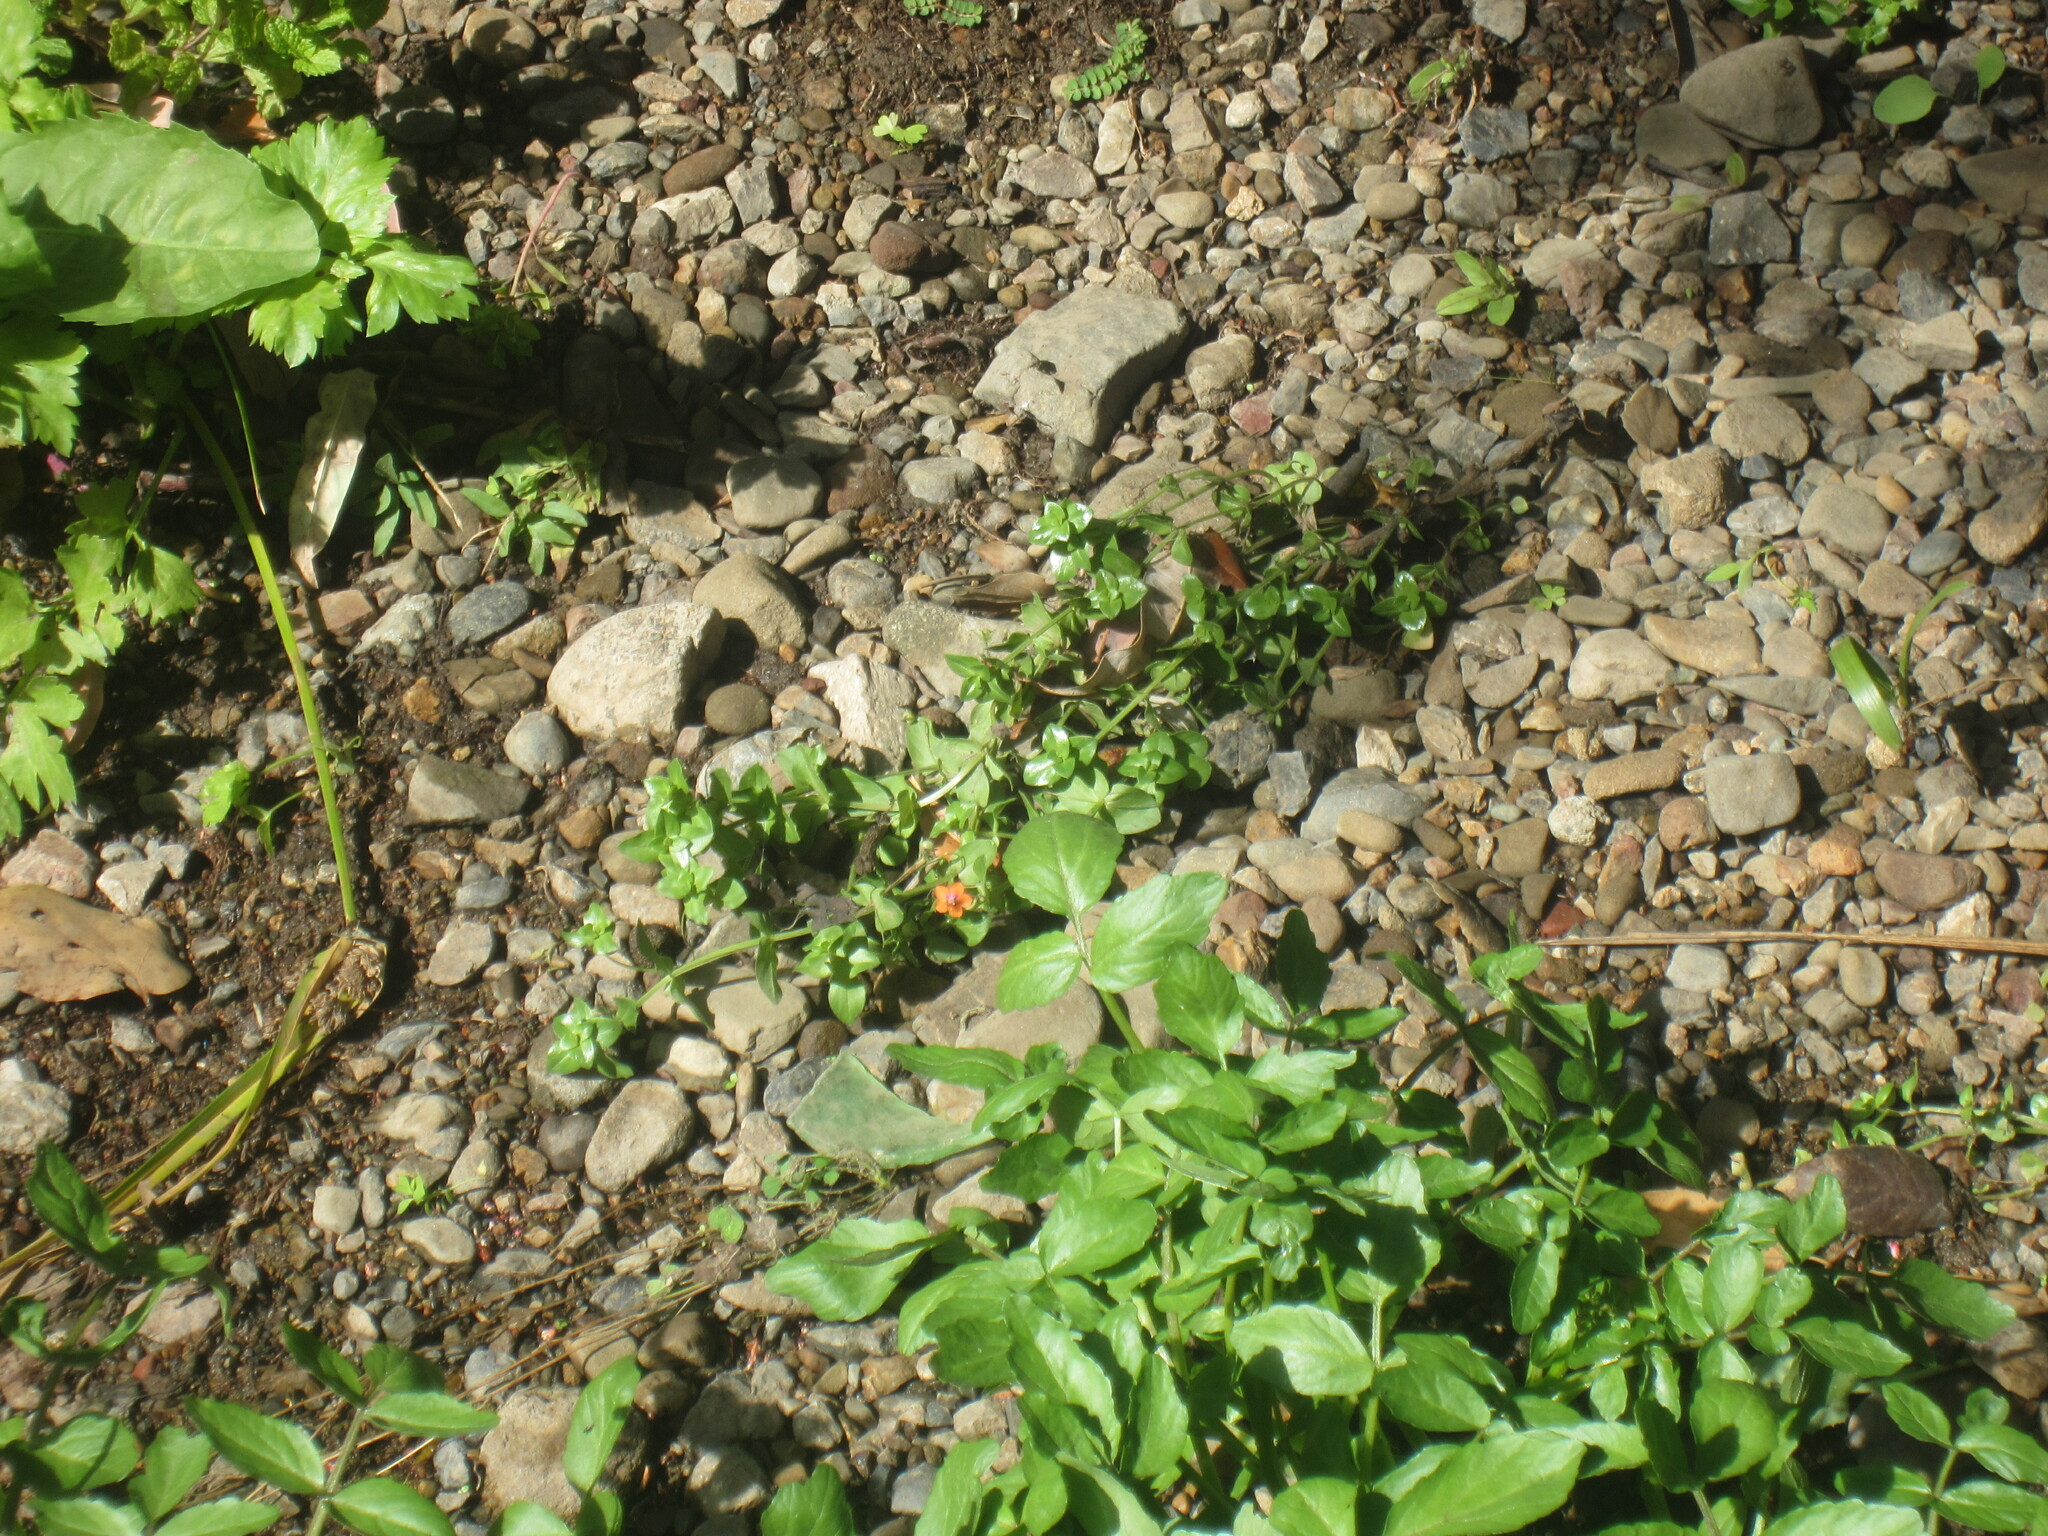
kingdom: Plantae
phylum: Tracheophyta
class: Magnoliopsida
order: Ericales
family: Primulaceae
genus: Lysimachia
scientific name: Lysimachia arvensis
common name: Scarlet pimpernel
